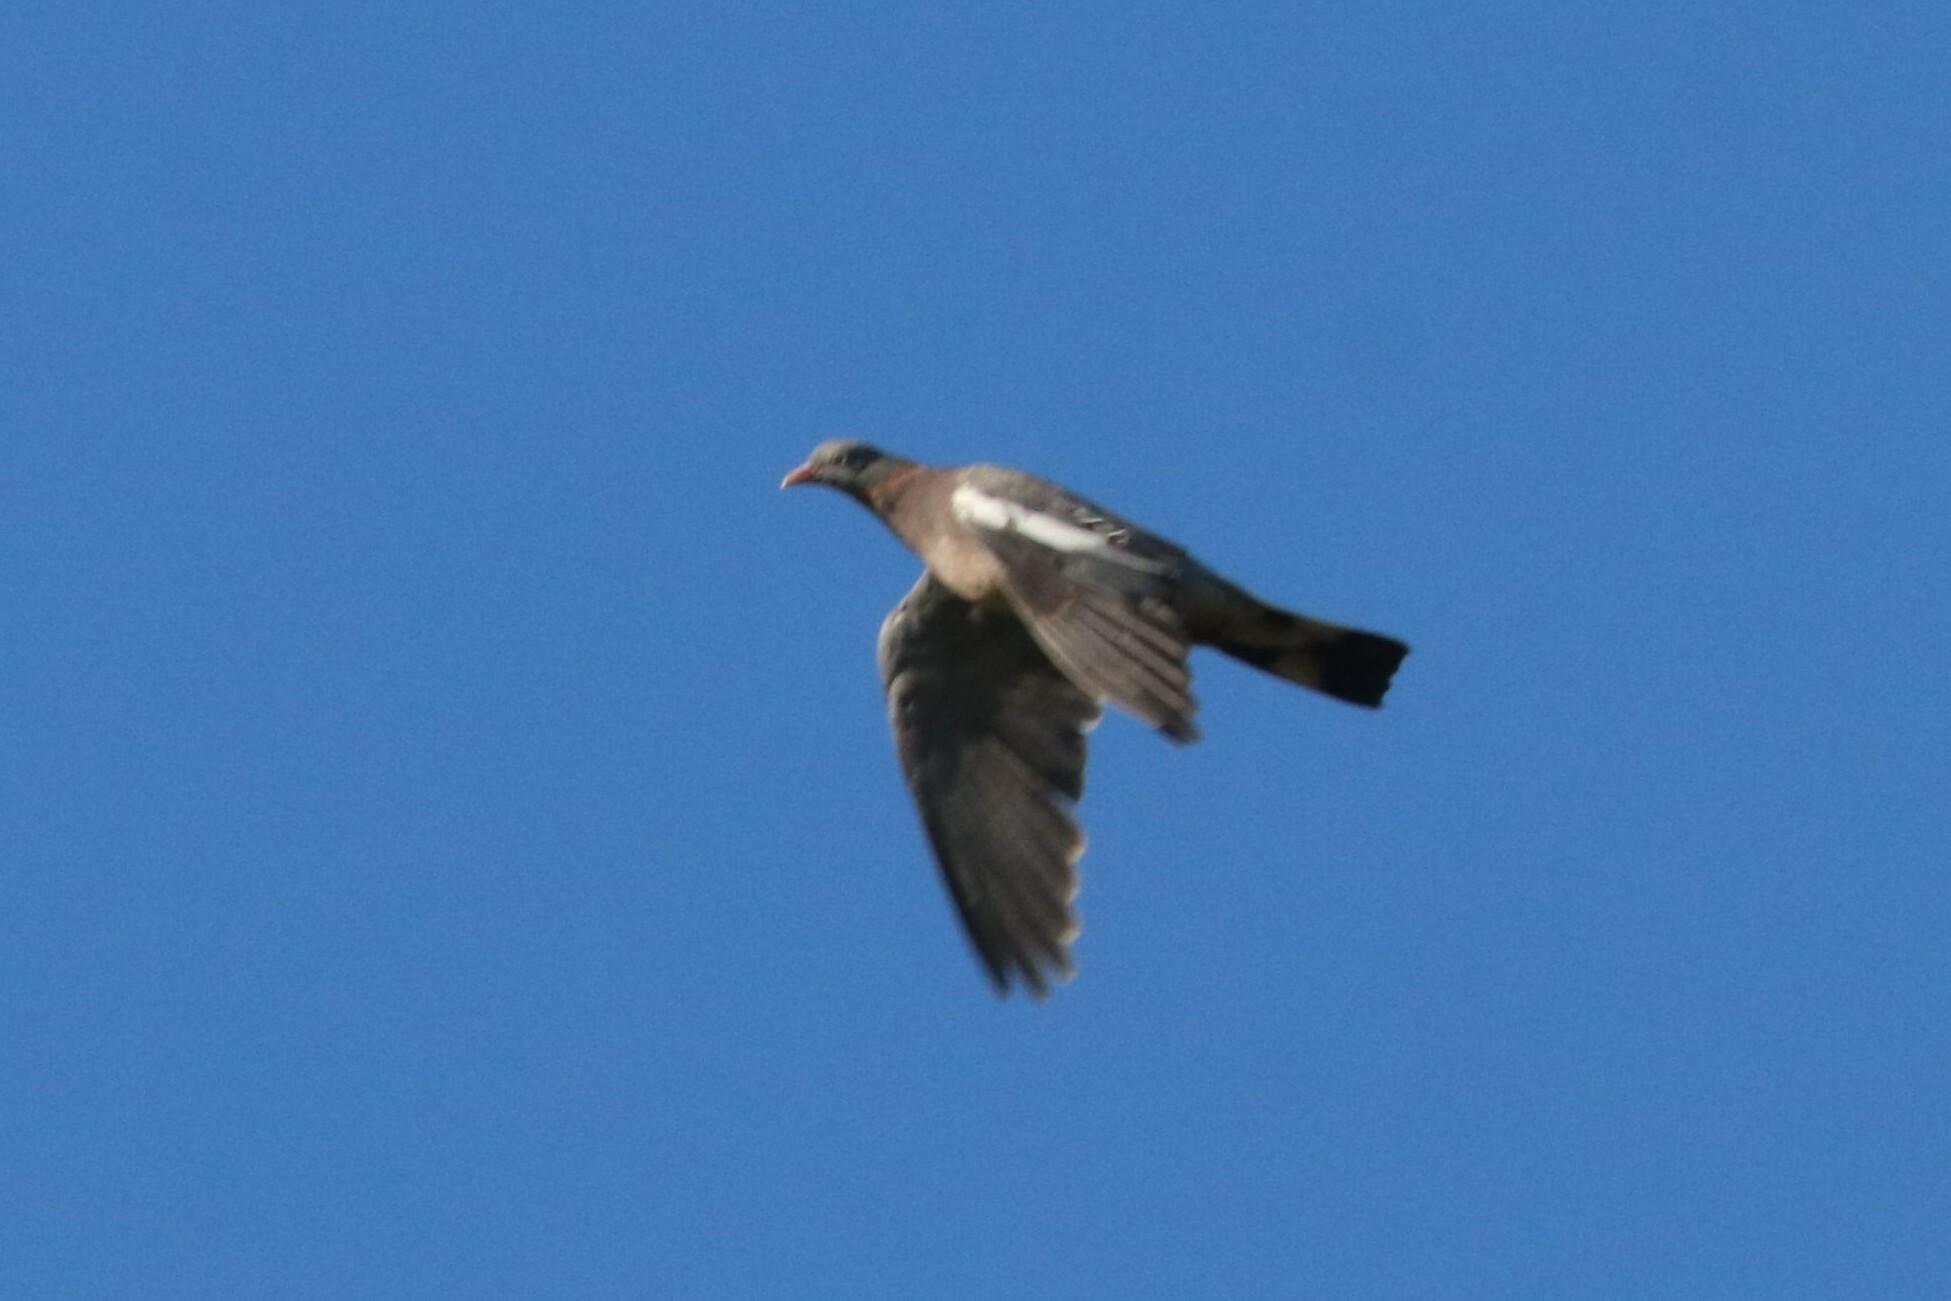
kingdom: Animalia
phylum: Chordata
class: Aves
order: Columbiformes
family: Columbidae
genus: Columba
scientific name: Columba palumbus
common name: Common wood pigeon
